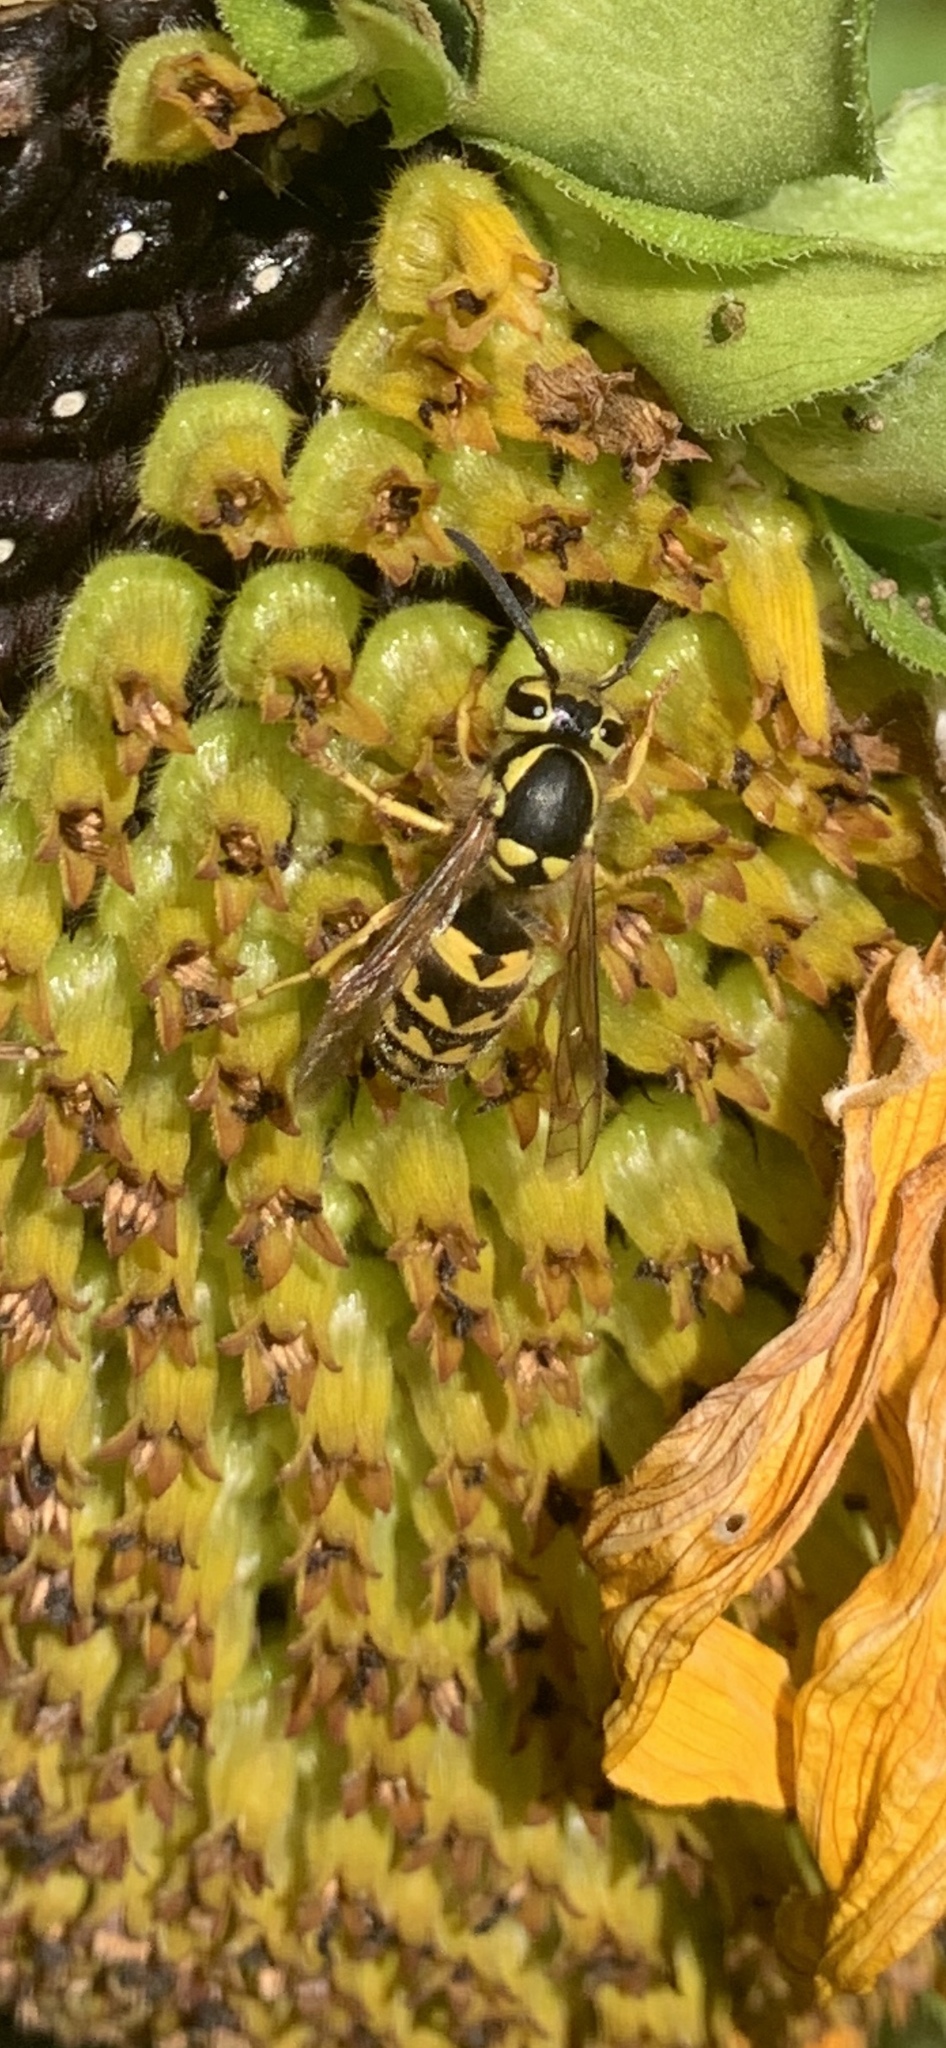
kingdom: Animalia
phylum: Arthropoda
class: Insecta
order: Hymenoptera
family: Vespidae
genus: Vespula
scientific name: Vespula pensylvanica
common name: Western yellowjacket
